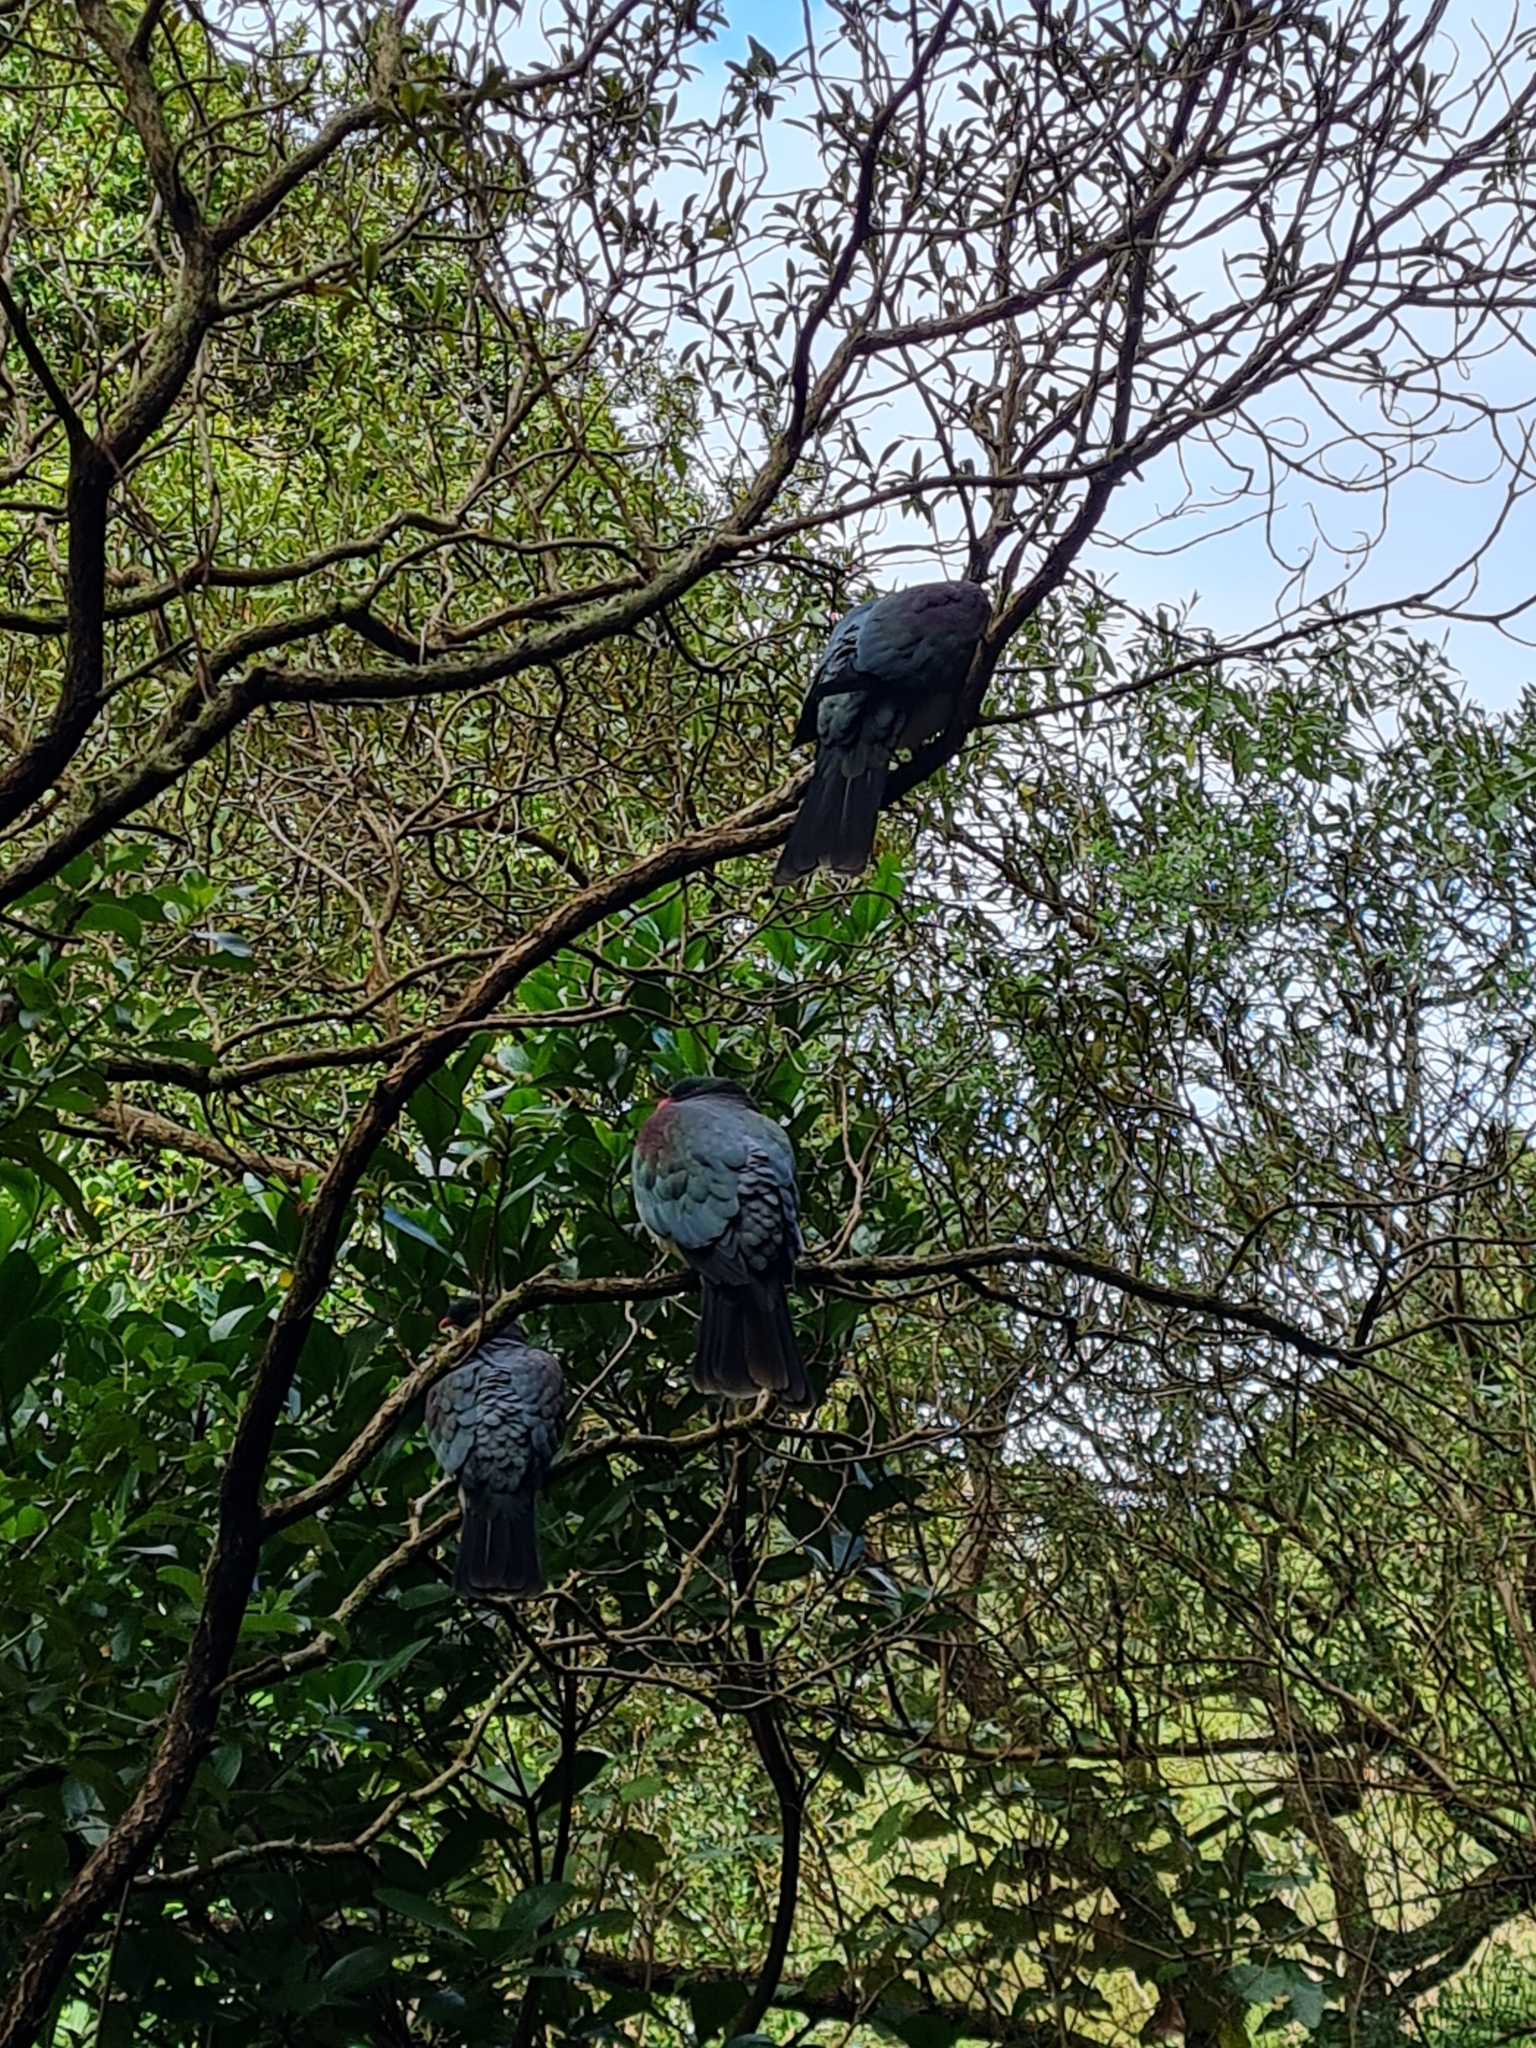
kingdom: Animalia
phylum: Chordata
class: Aves
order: Columbiformes
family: Columbidae
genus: Hemiphaga
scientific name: Hemiphaga novaeseelandiae
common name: New zealand pigeon
